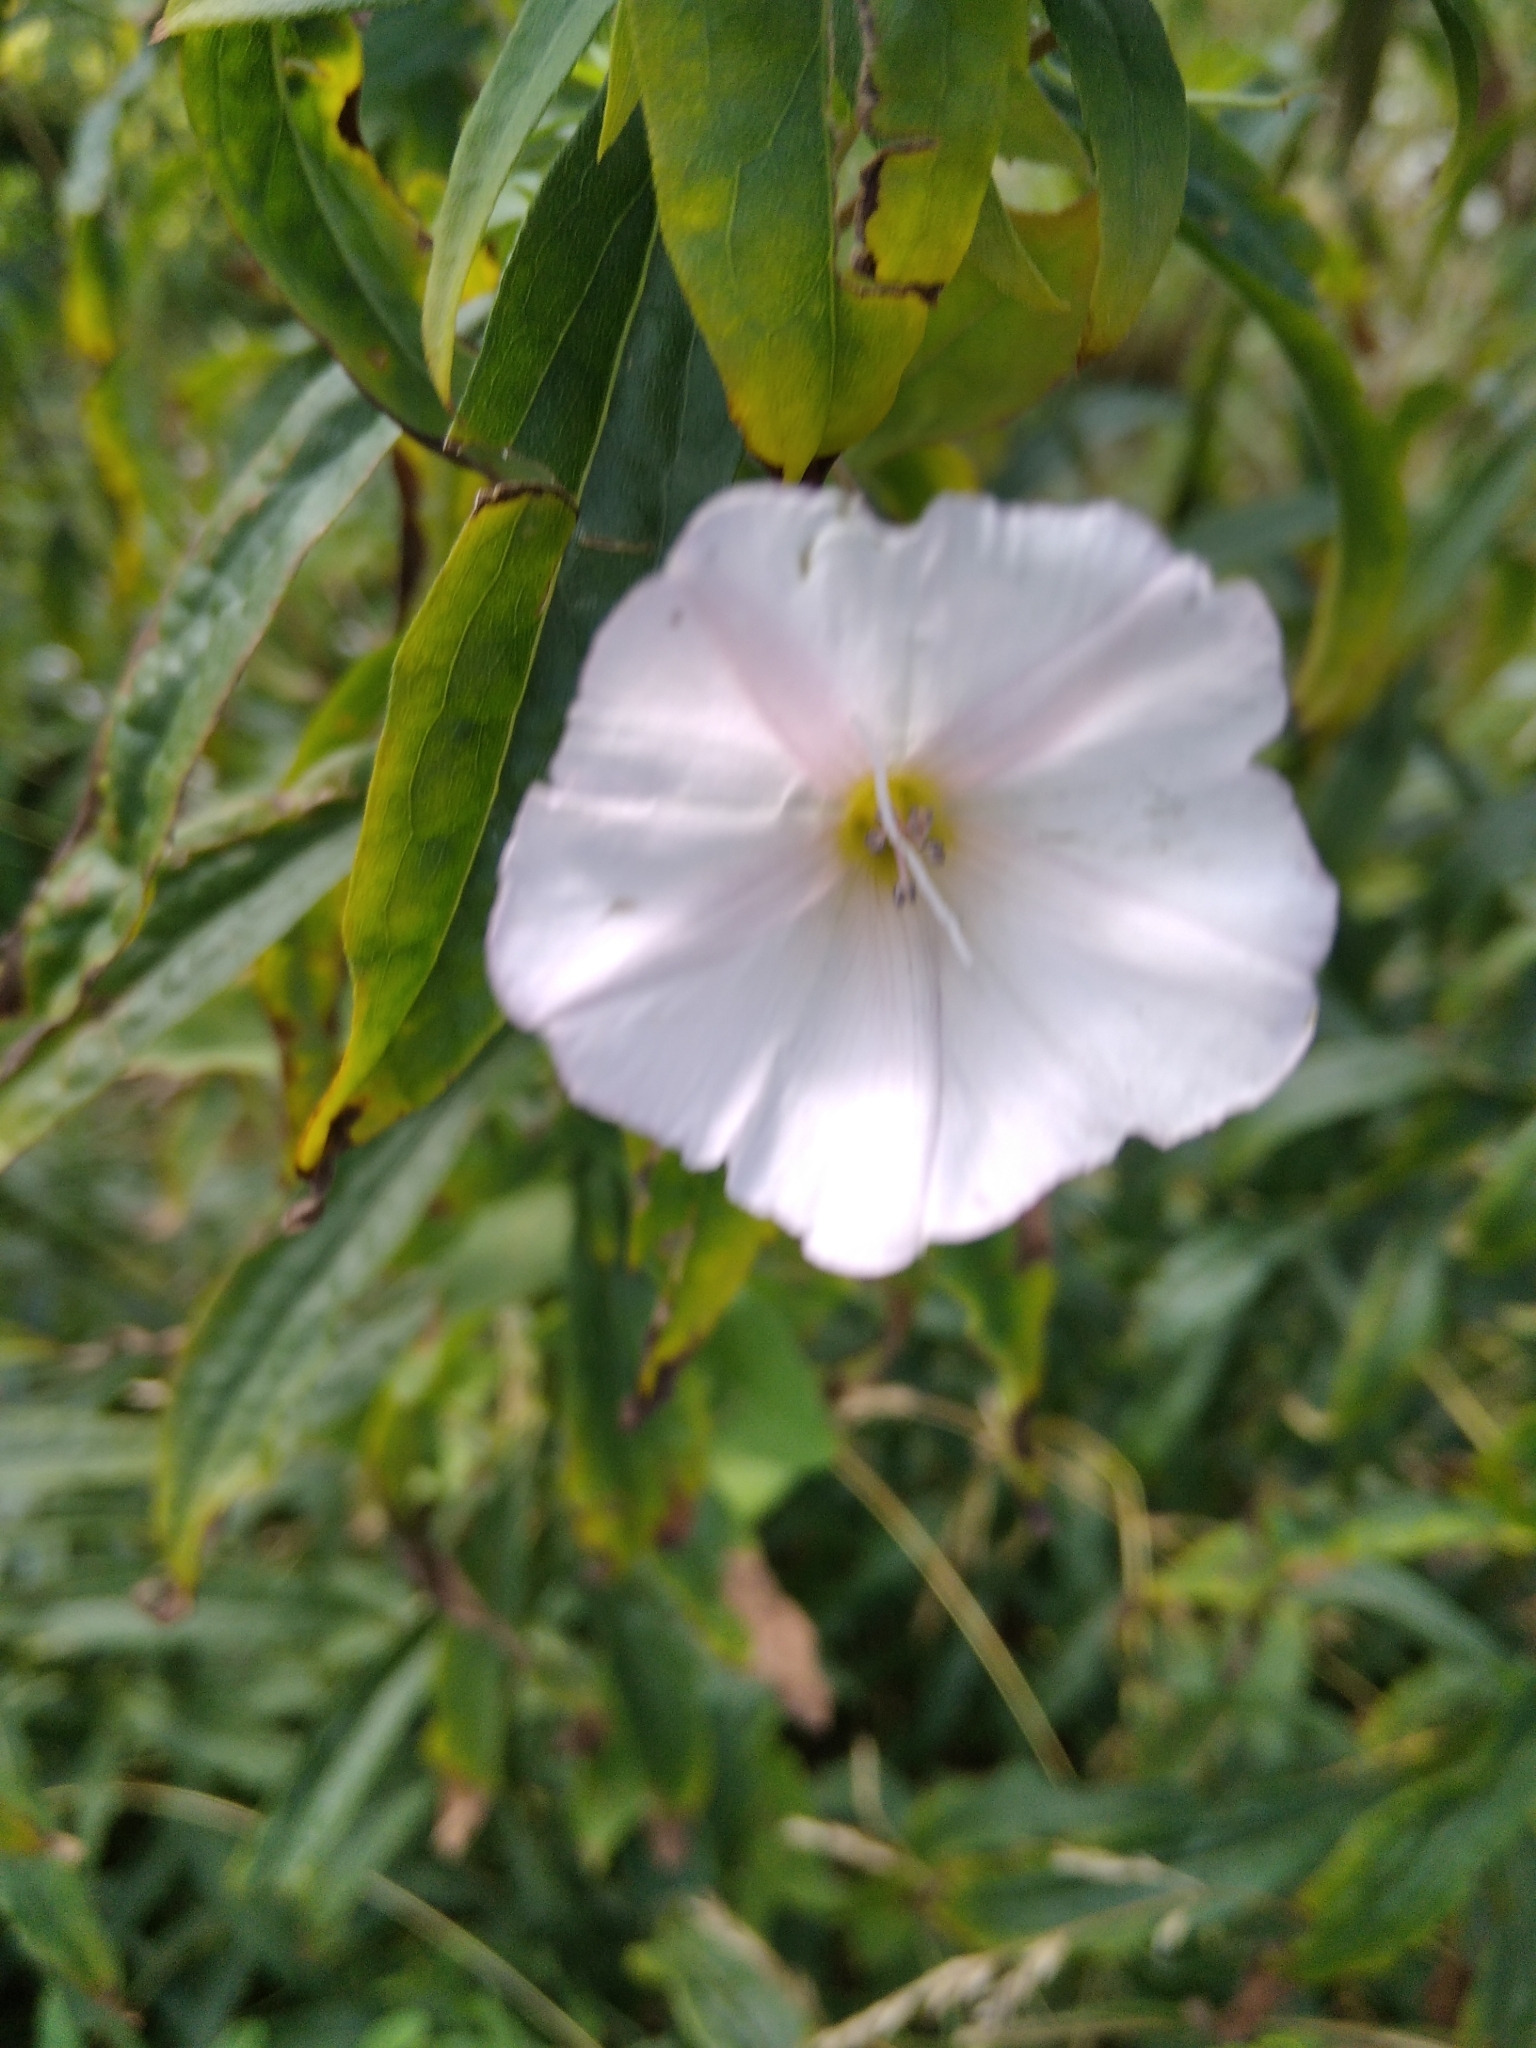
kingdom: Plantae
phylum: Tracheophyta
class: Magnoliopsida
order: Solanales
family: Convolvulaceae
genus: Convolvulus
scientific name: Convolvulus arvensis
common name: Field bindweed
